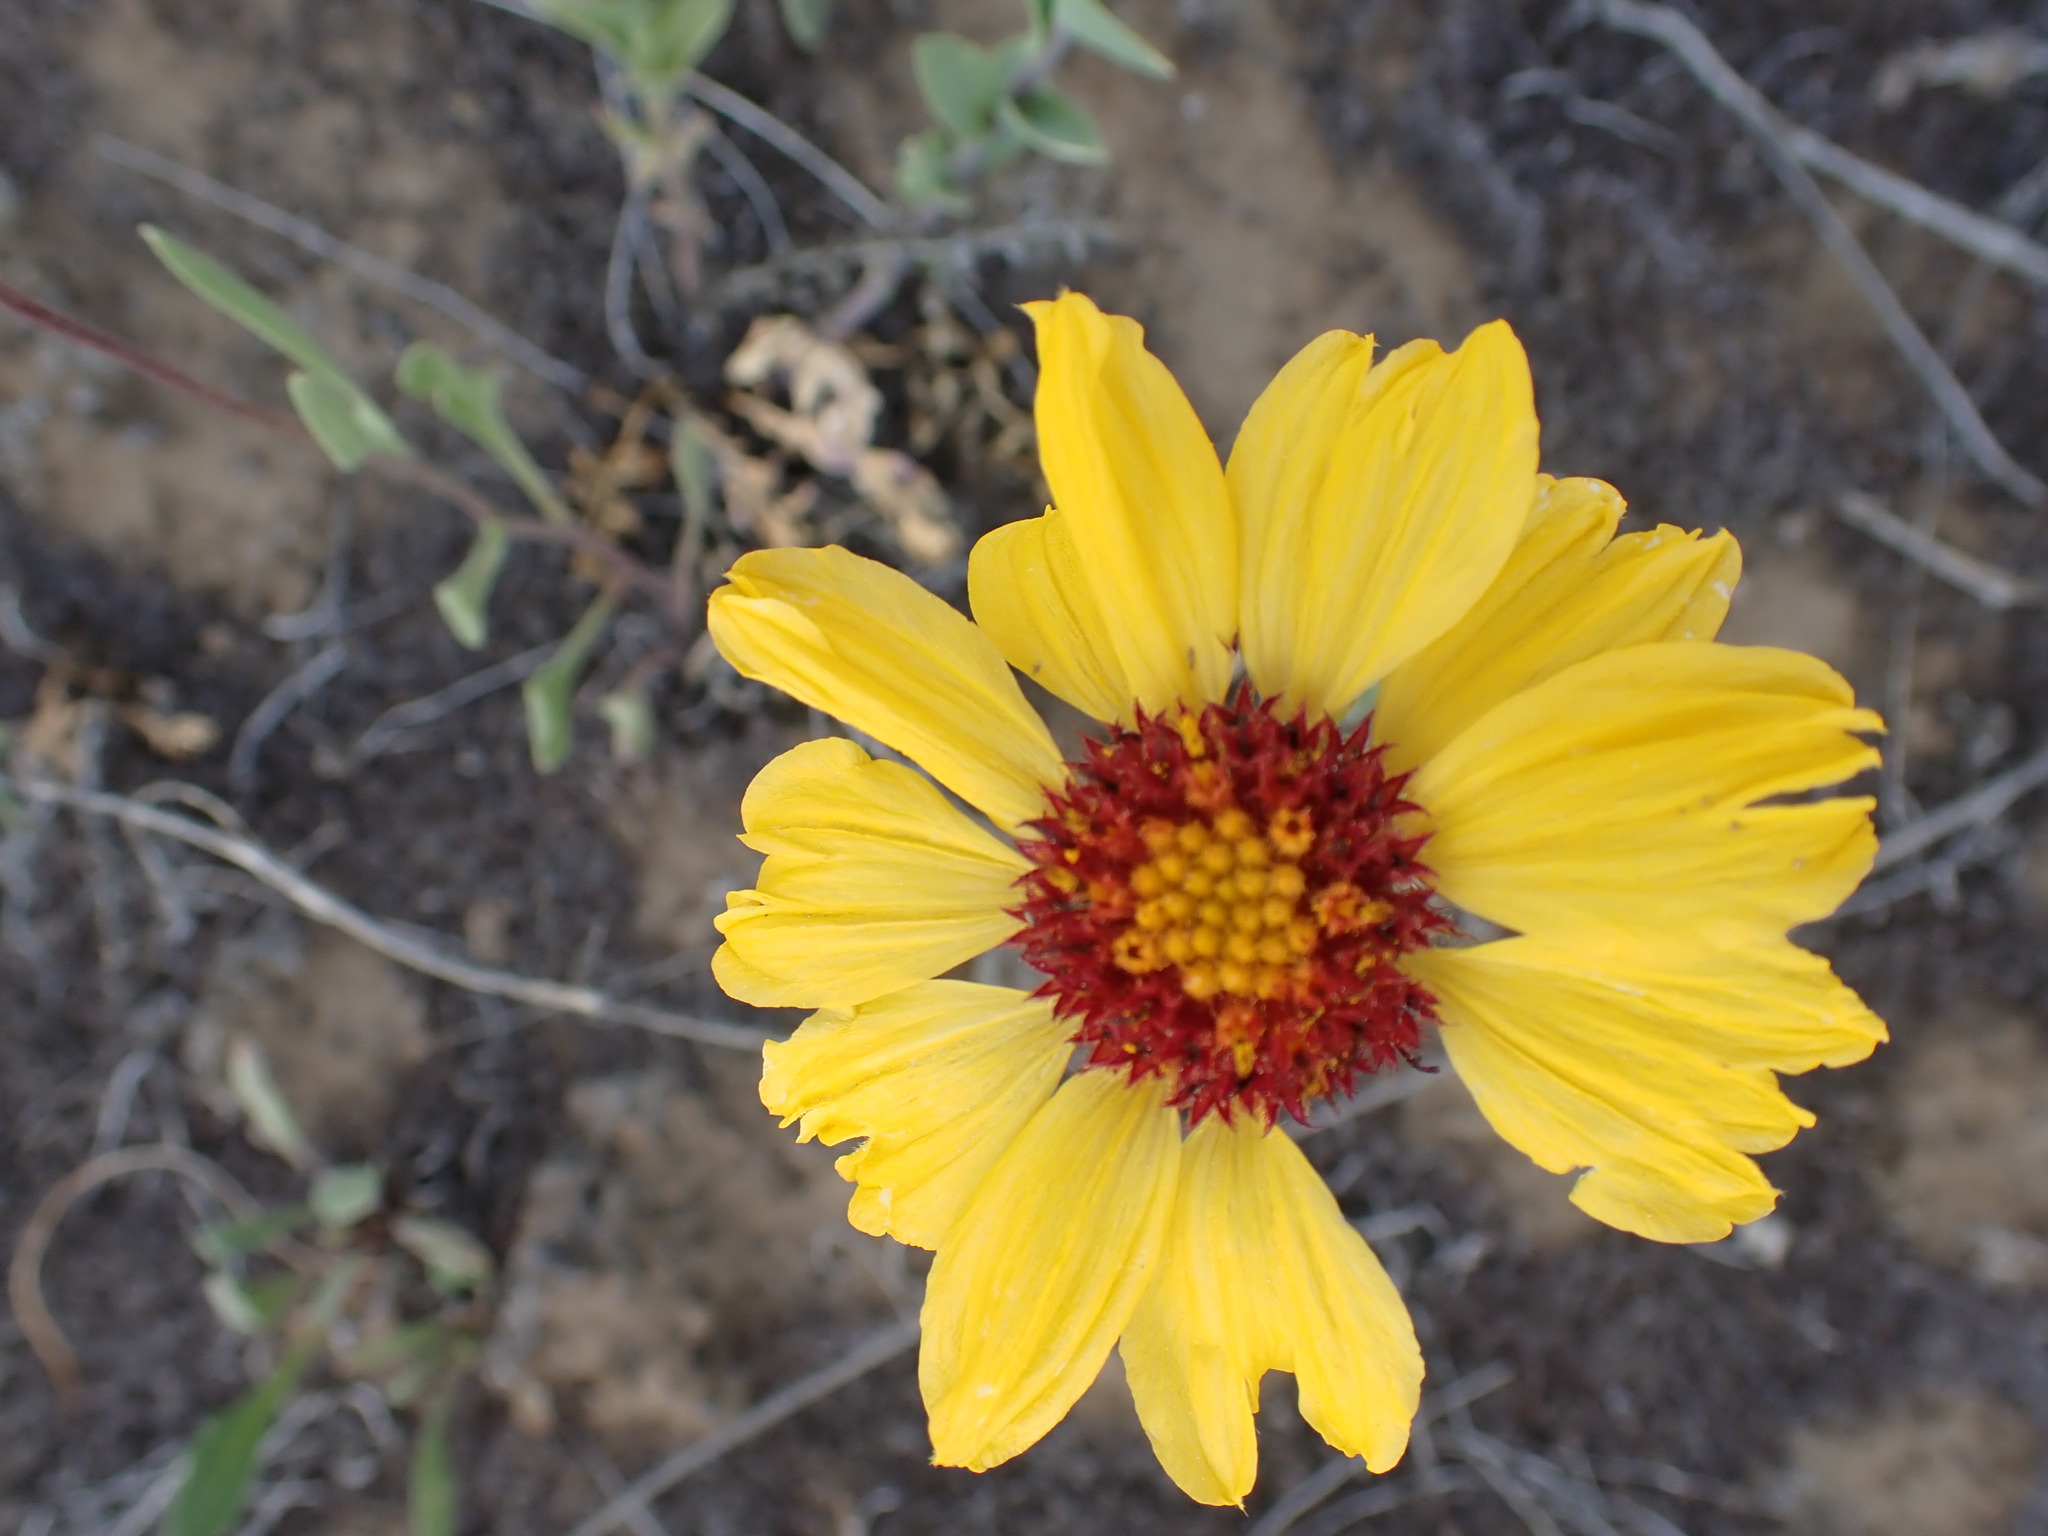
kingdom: Plantae
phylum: Tracheophyta
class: Magnoliopsida
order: Asterales
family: Asteraceae
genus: Gaillardia
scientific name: Gaillardia aristata
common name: Blanket-flower
